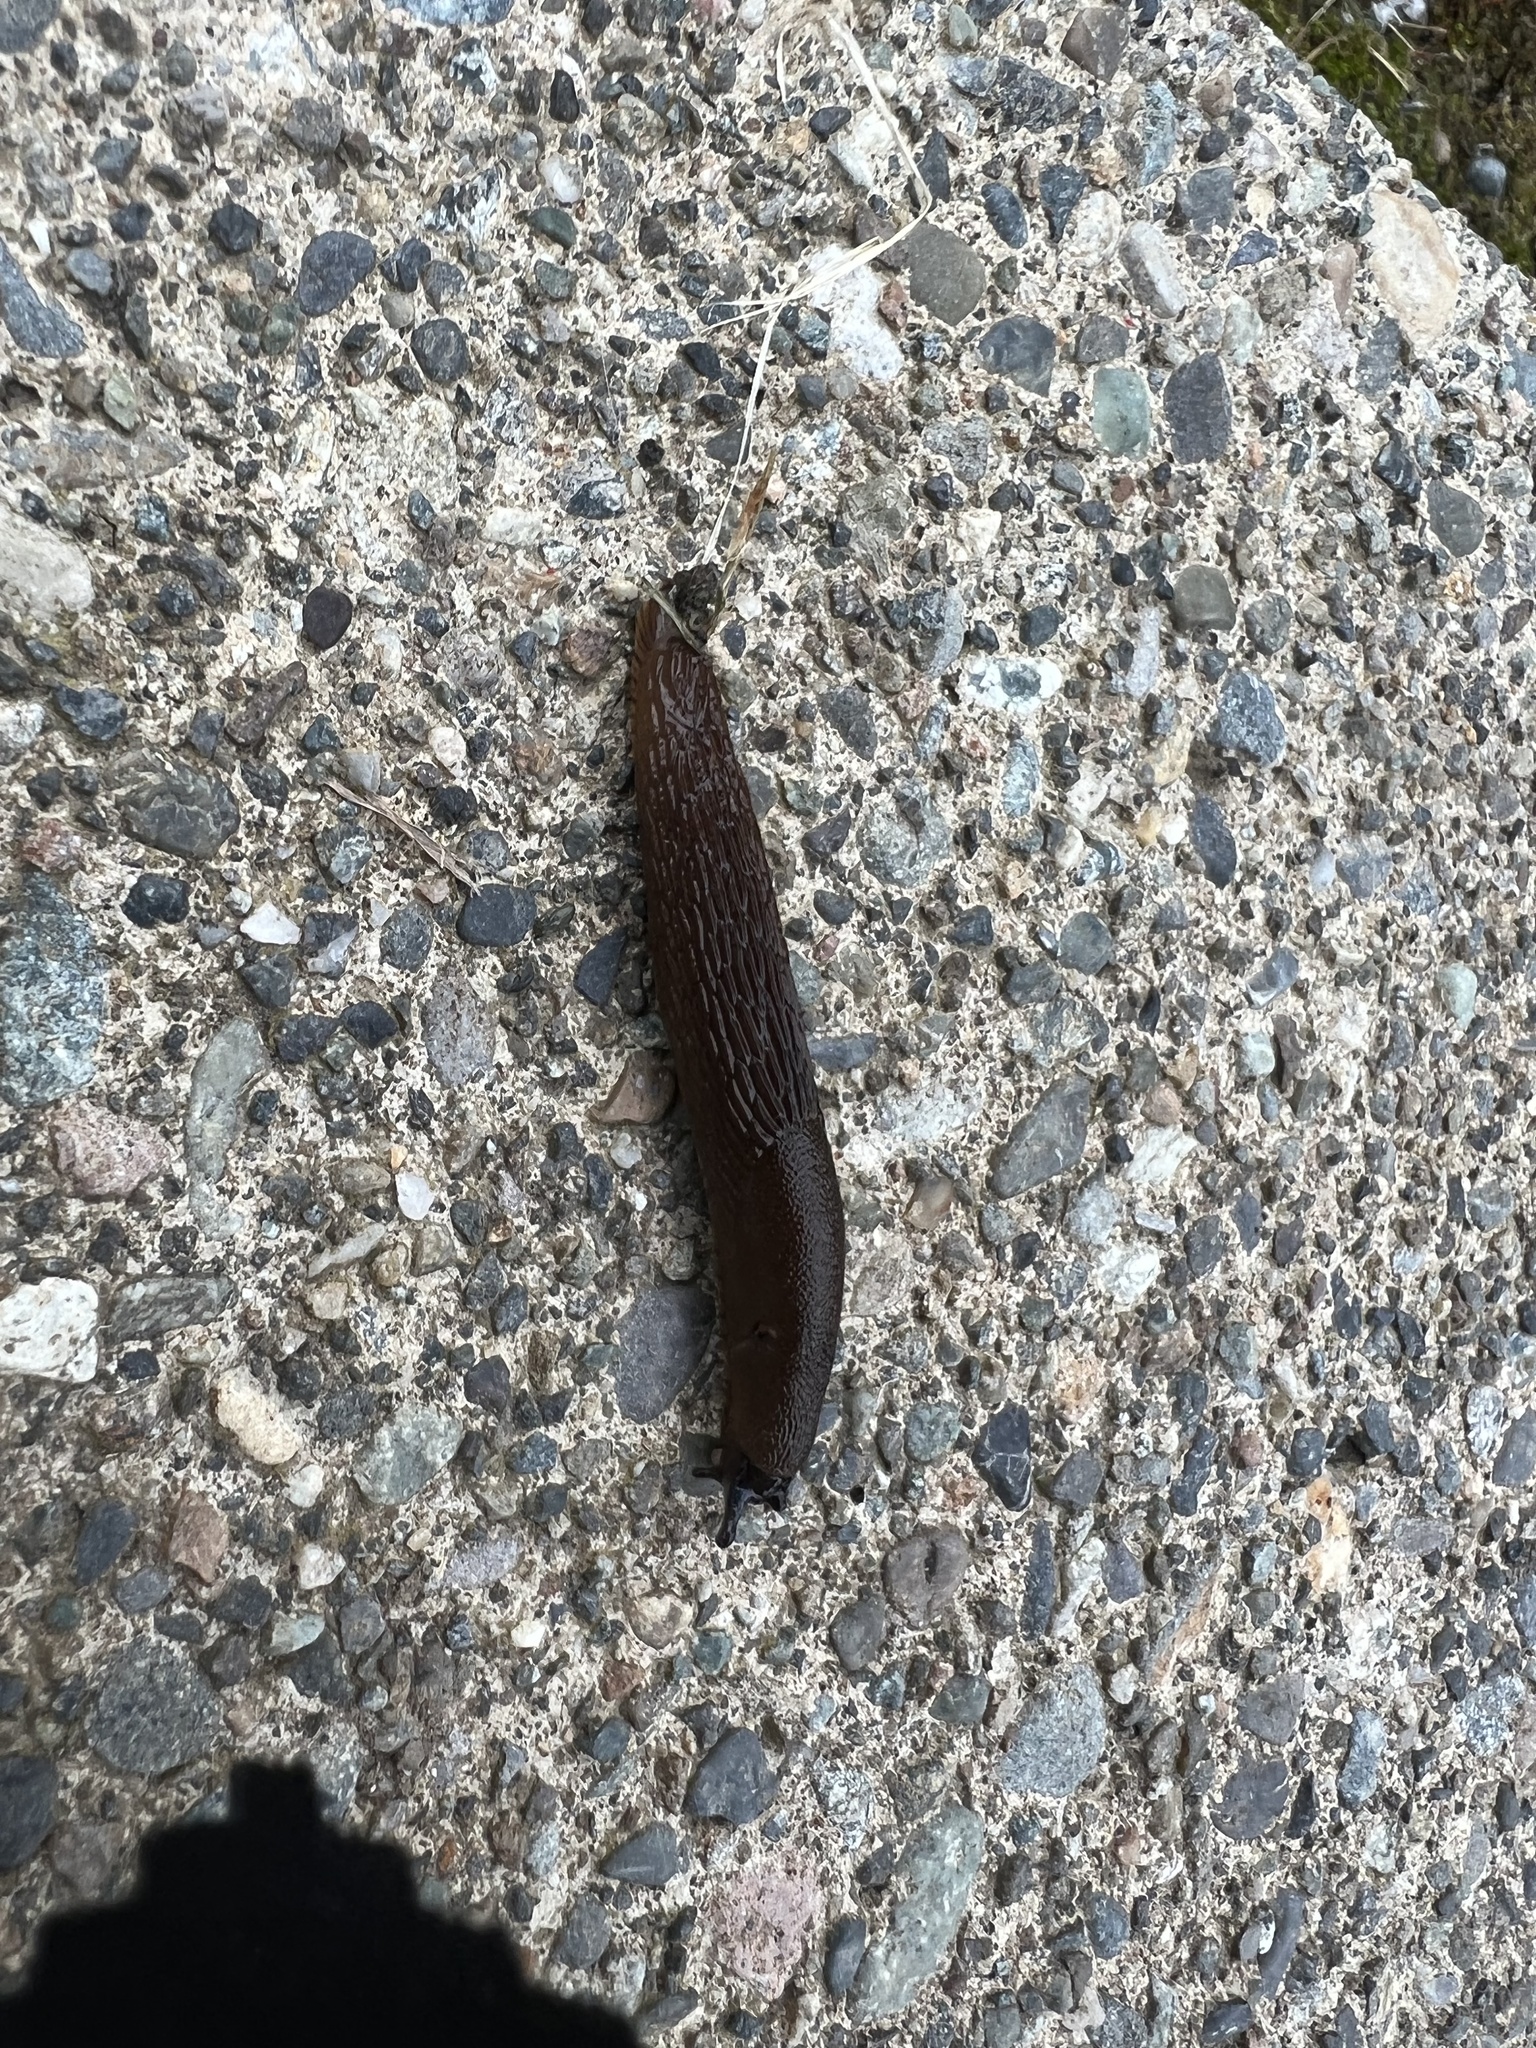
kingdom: Animalia
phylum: Mollusca
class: Gastropoda
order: Stylommatophora
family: Arionidae
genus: Arion
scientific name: Arion
